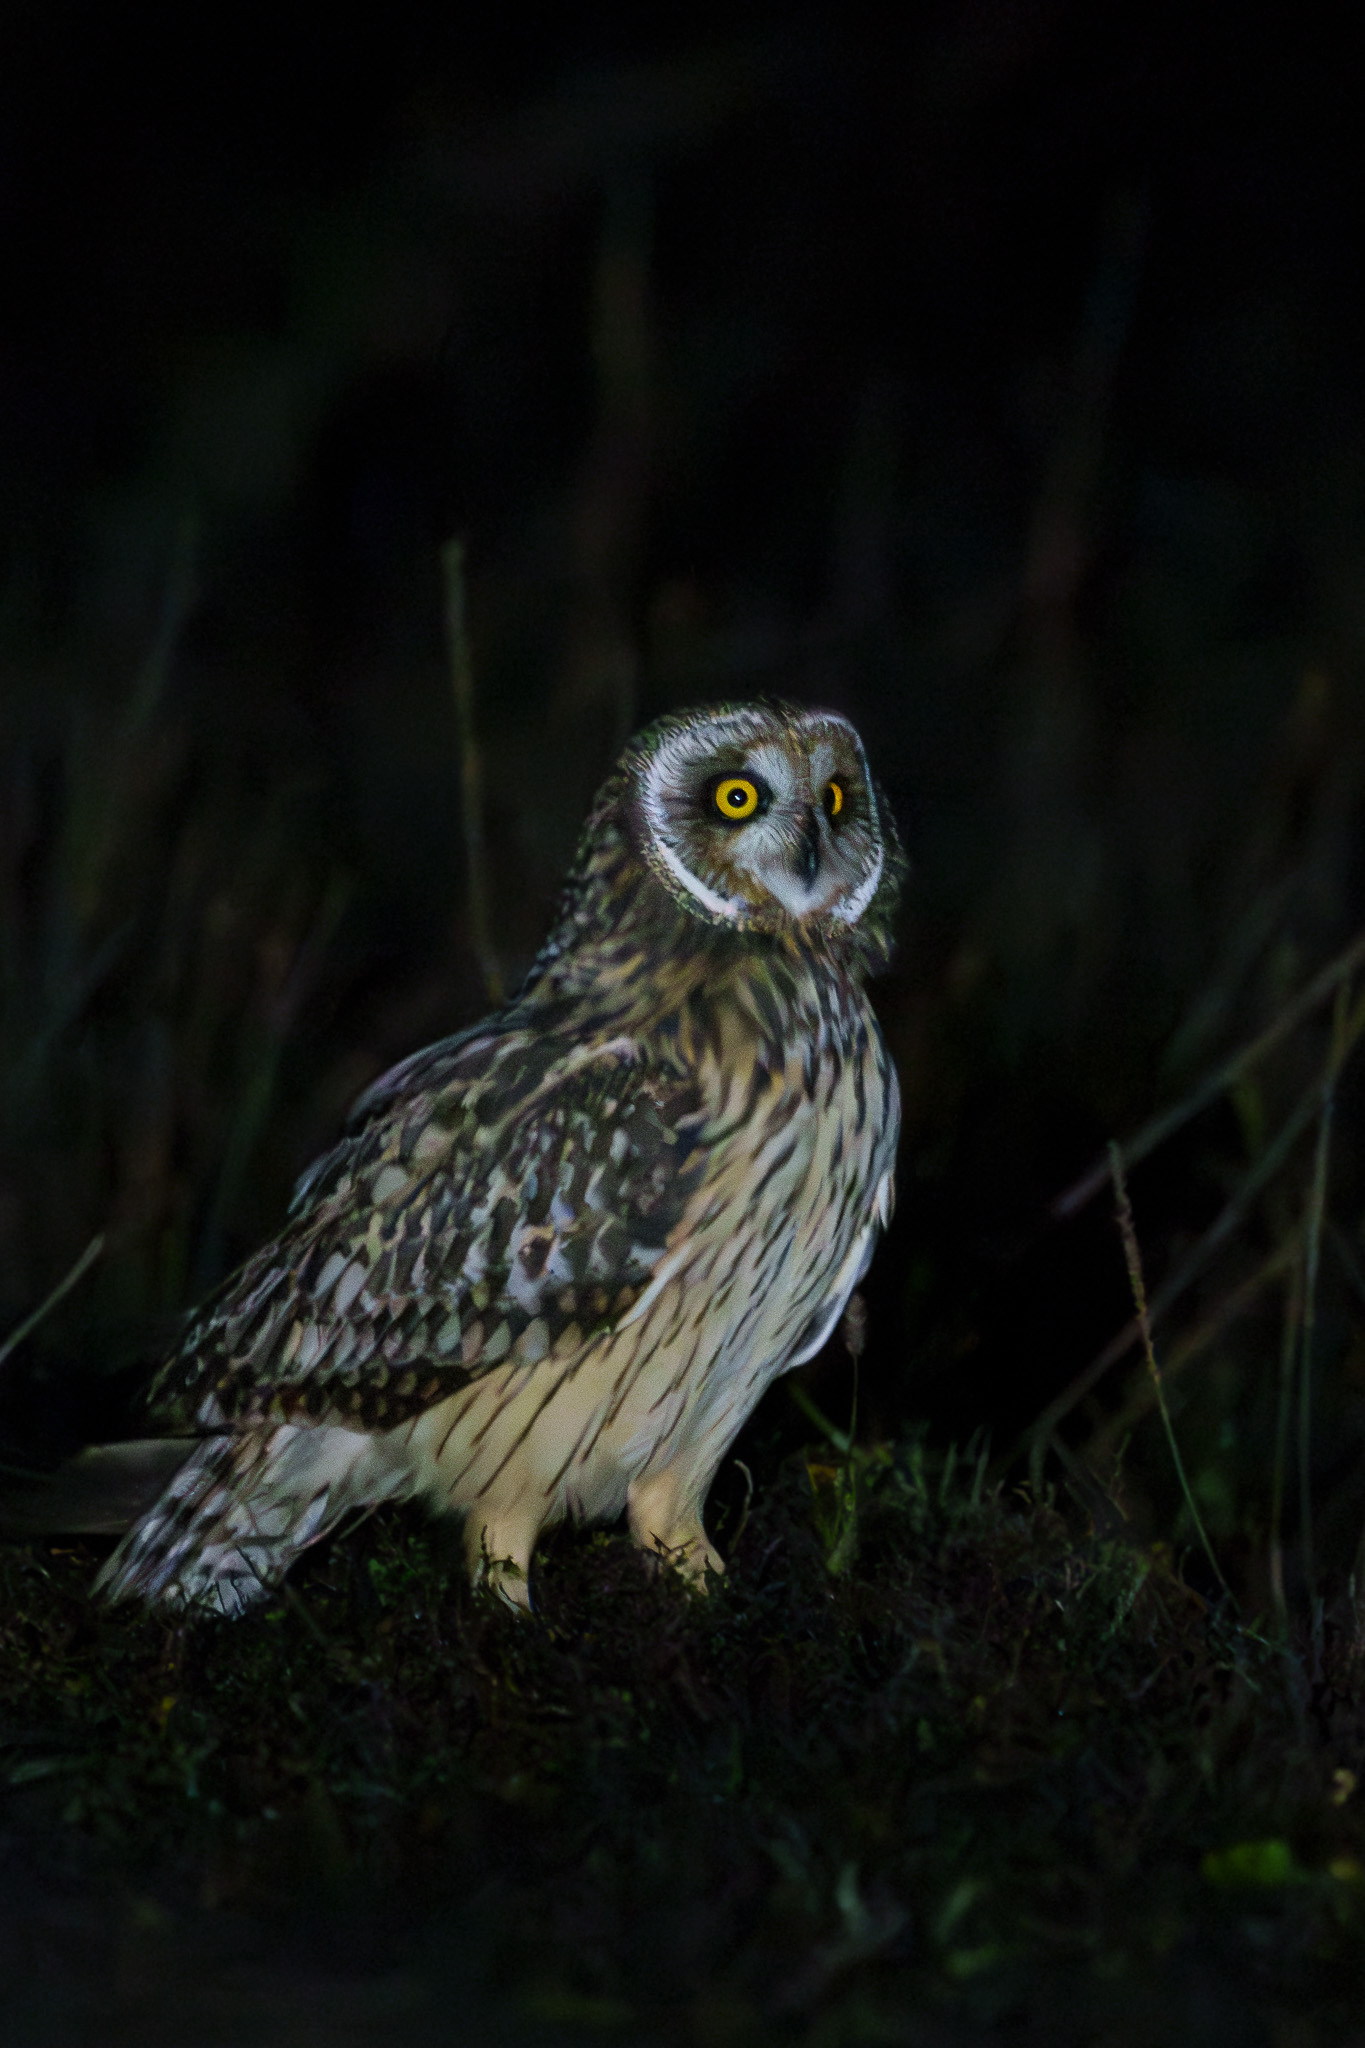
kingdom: Animalia
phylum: Chordata
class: Aves
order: Strigiformes
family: Strigidae
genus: Asio
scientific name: Asio flammeus
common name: Short-eared owl
